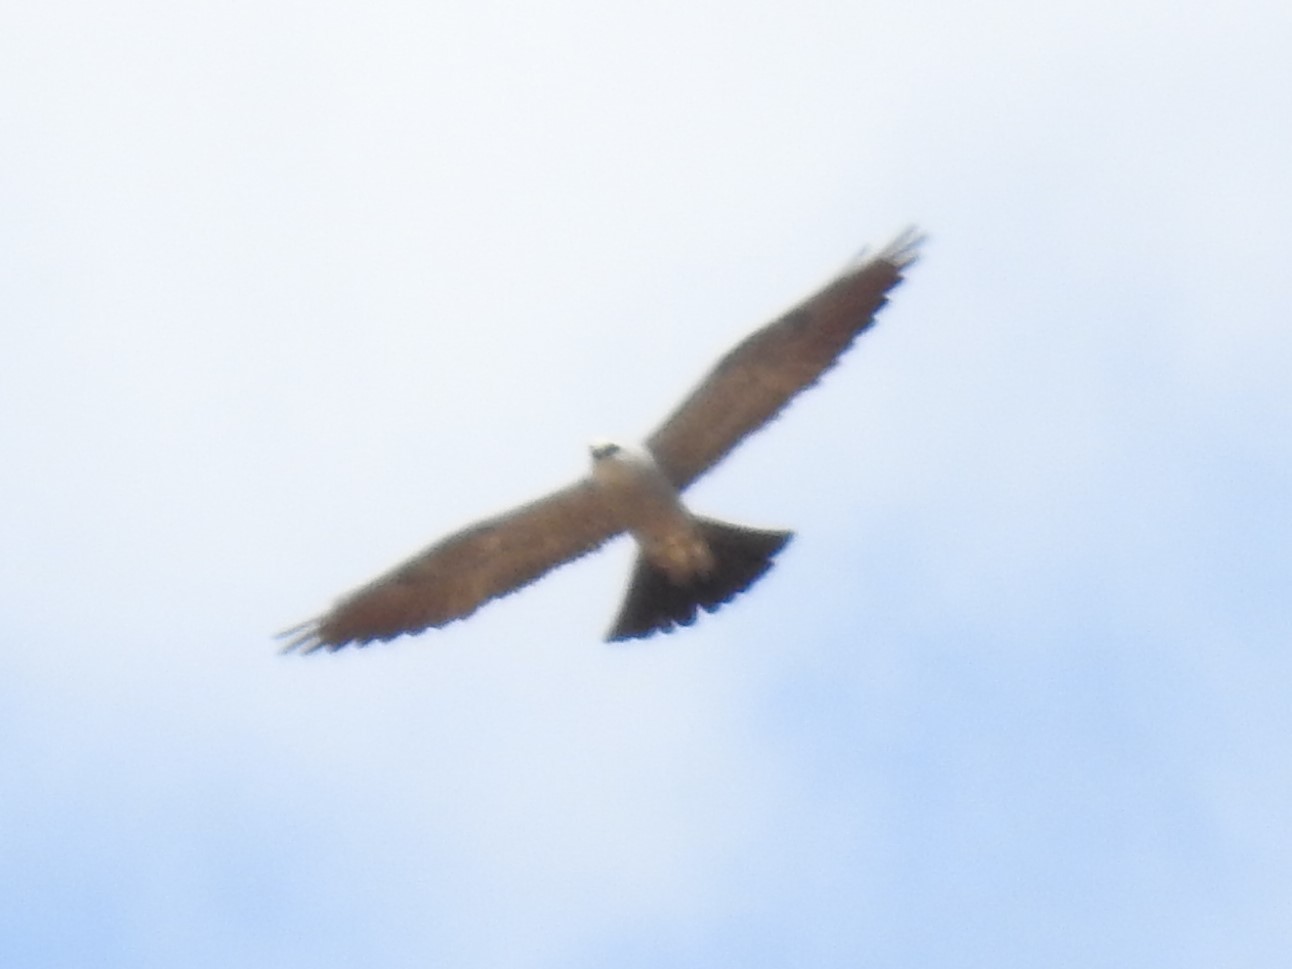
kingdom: Animalia
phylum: Chordata
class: Aves
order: Accipitriformes
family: Accipitridae
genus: Ictinia
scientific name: Ictinia mississippiensis
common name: Mississippi kite
